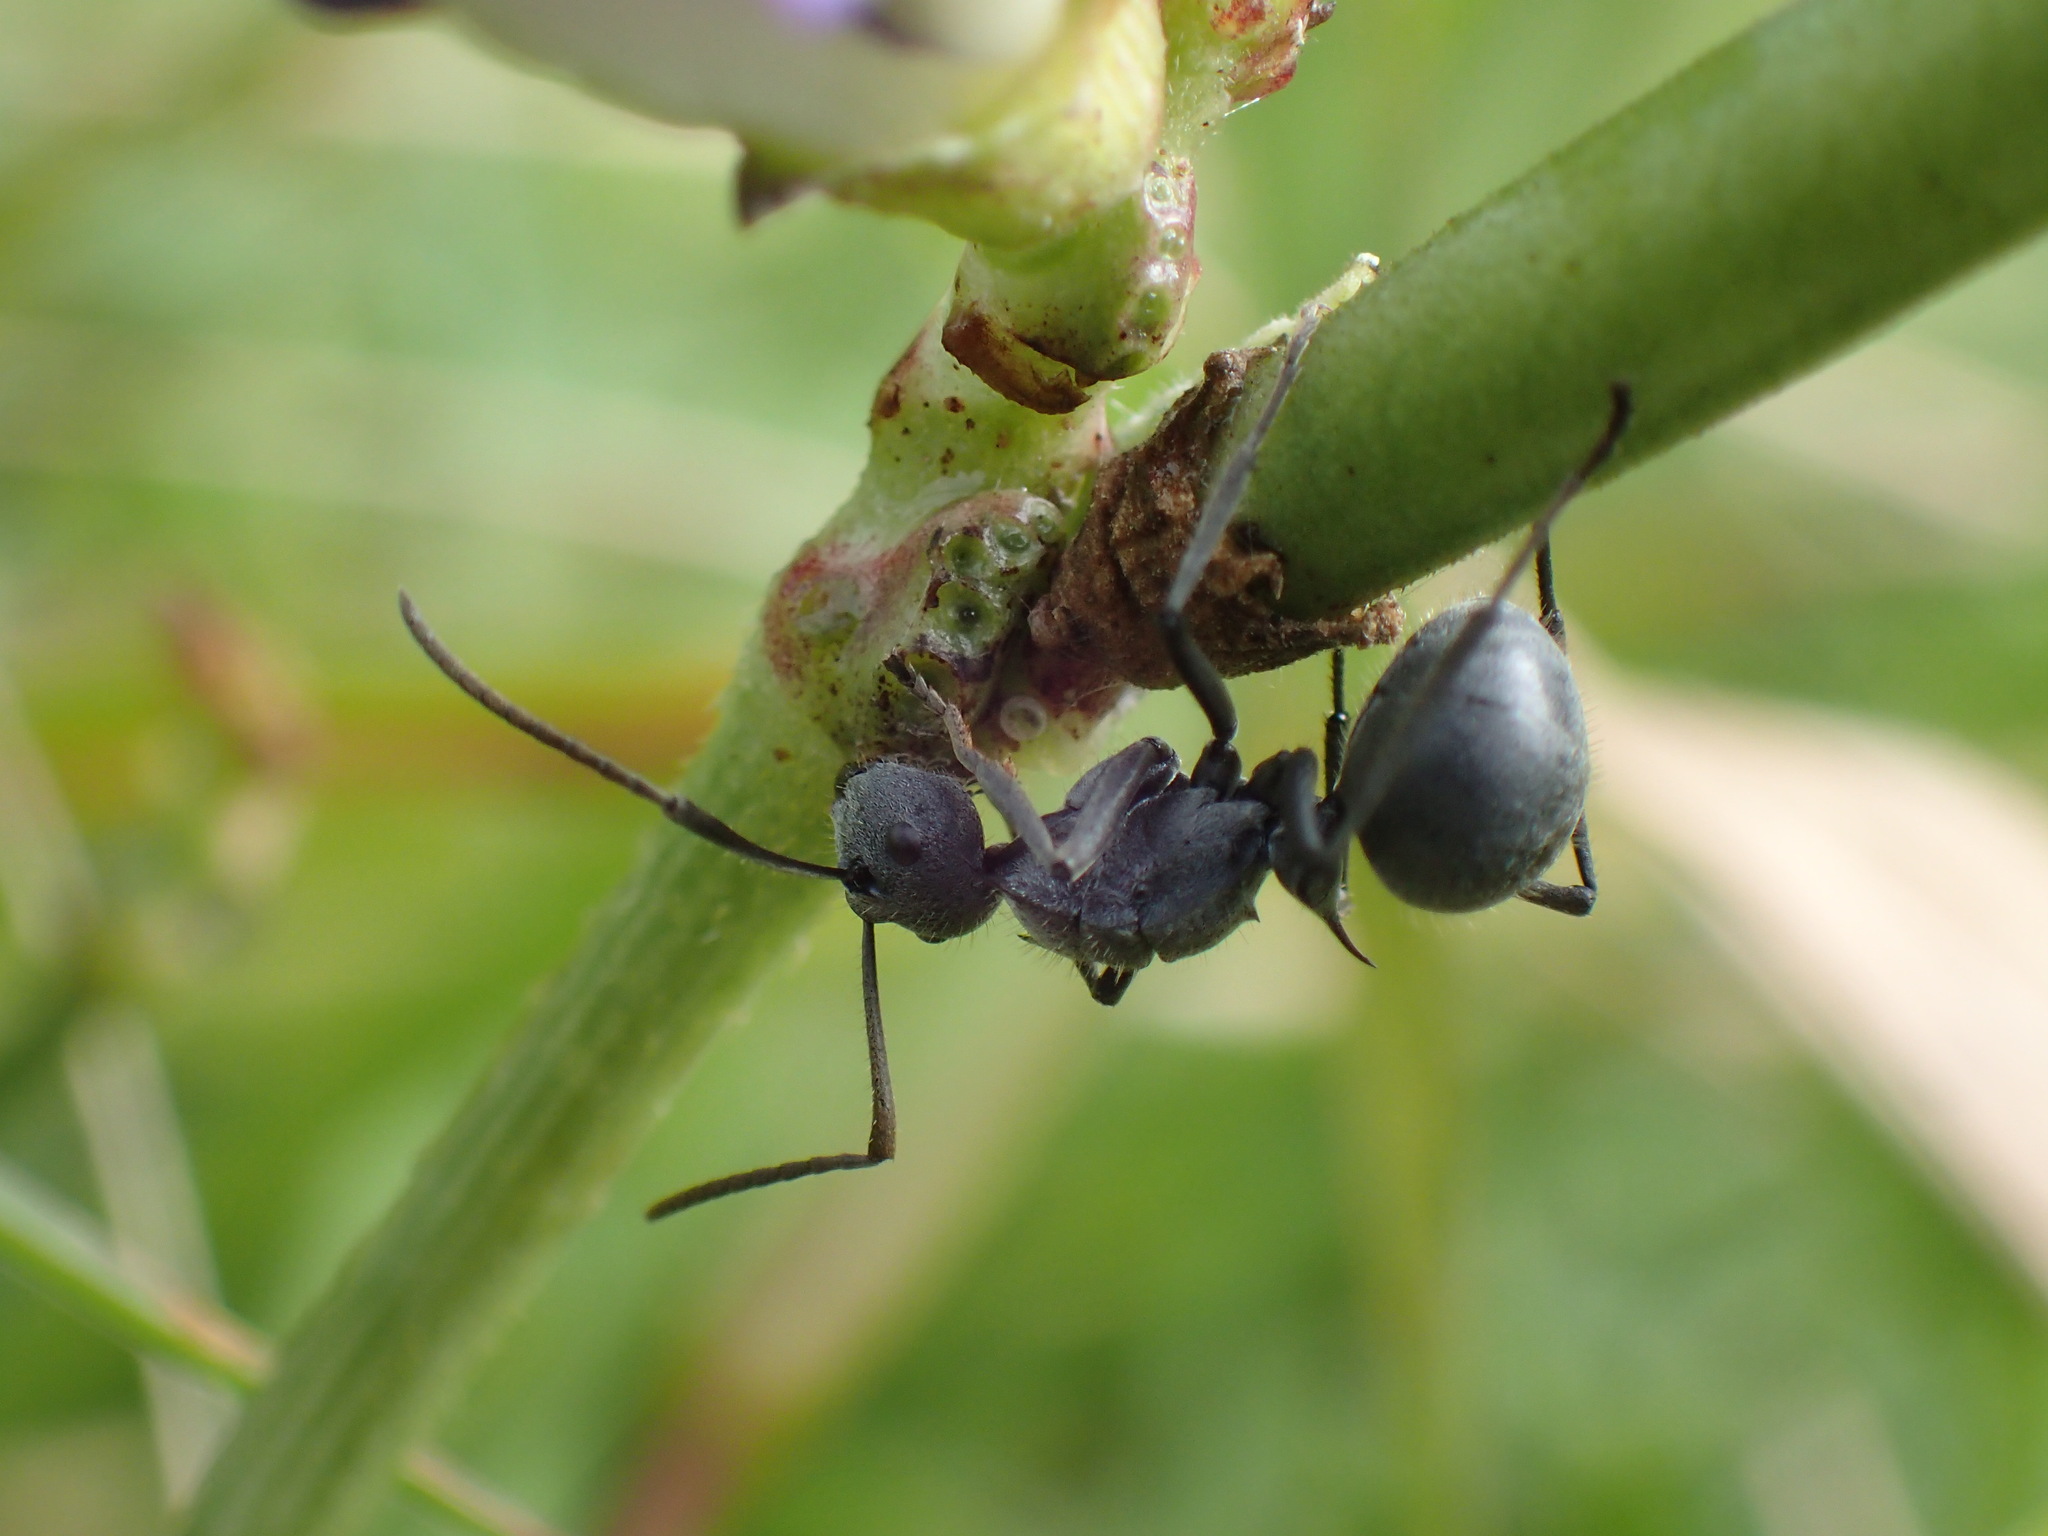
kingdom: Animalia
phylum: Arthropoda
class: Insecta
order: Hymenoptera
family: Formicidae
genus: Polyrhachis
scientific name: Polyrhachis schistacea
